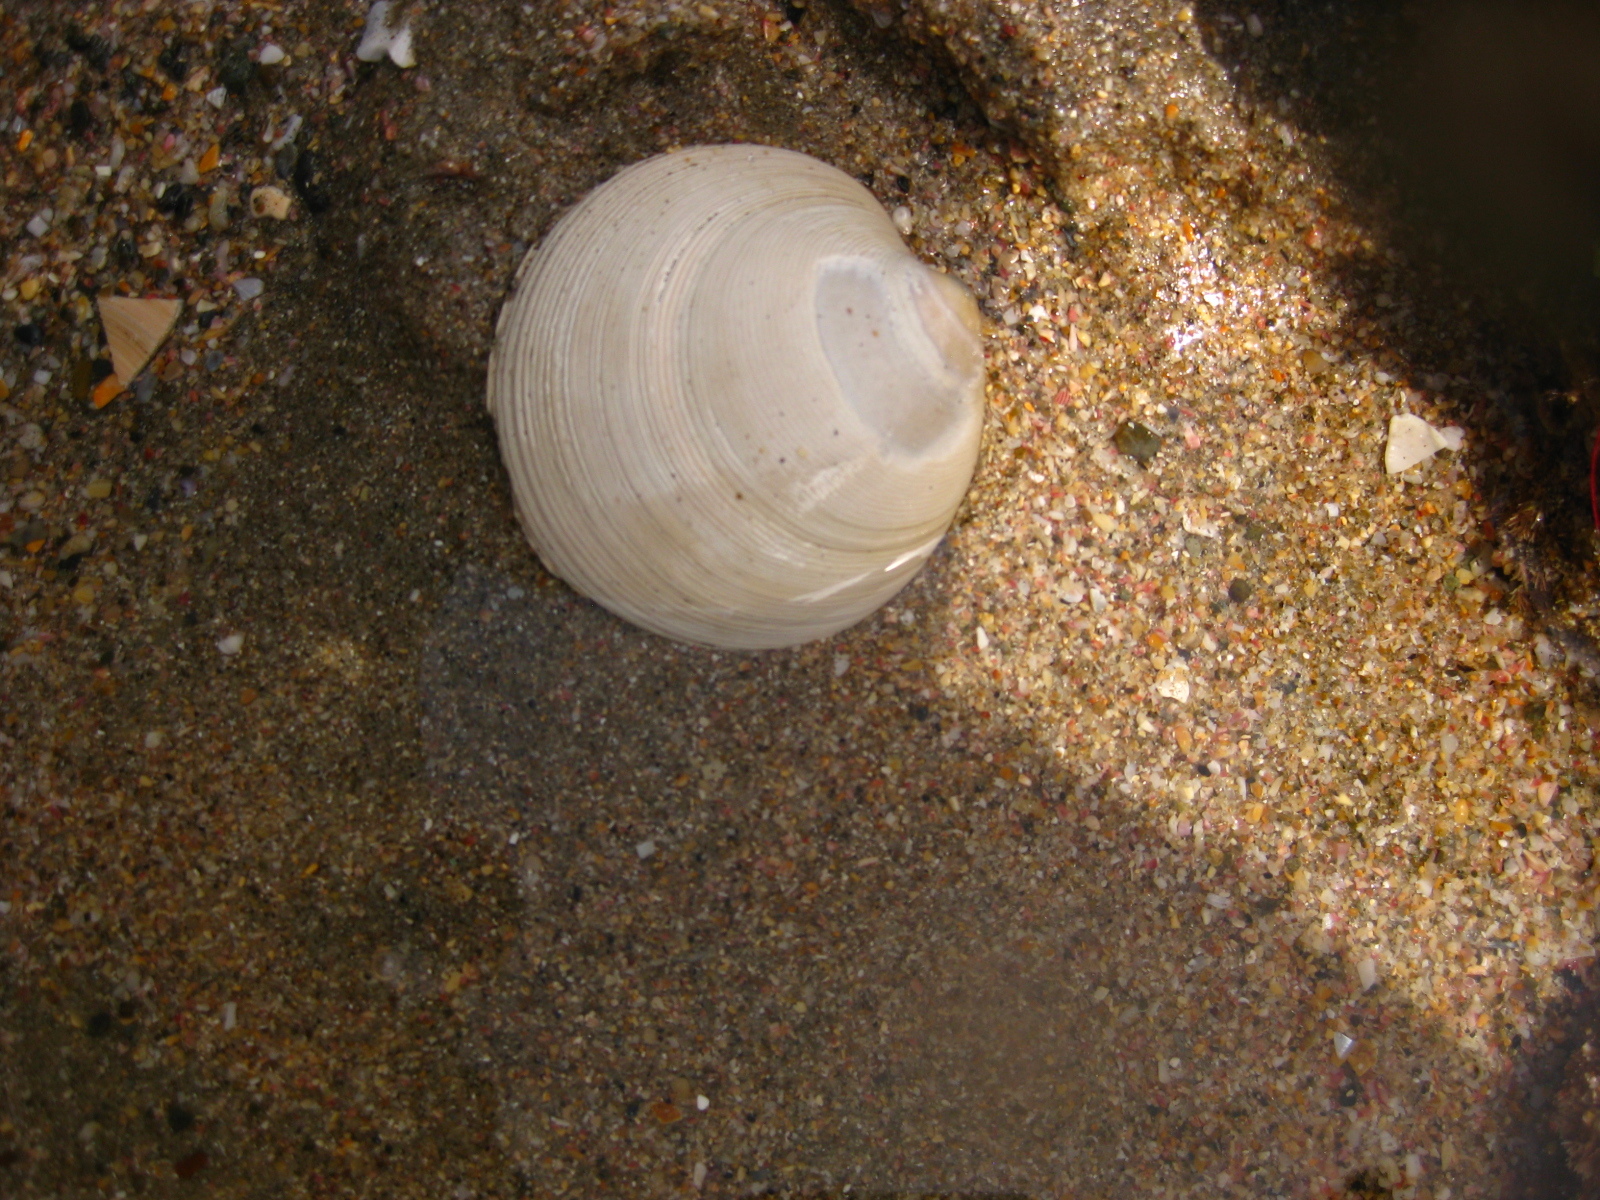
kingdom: Animalia
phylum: Mollusca
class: Bivalvia
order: Venerida
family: Veneridae
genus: Dosinia
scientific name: Dosinia maoriana
